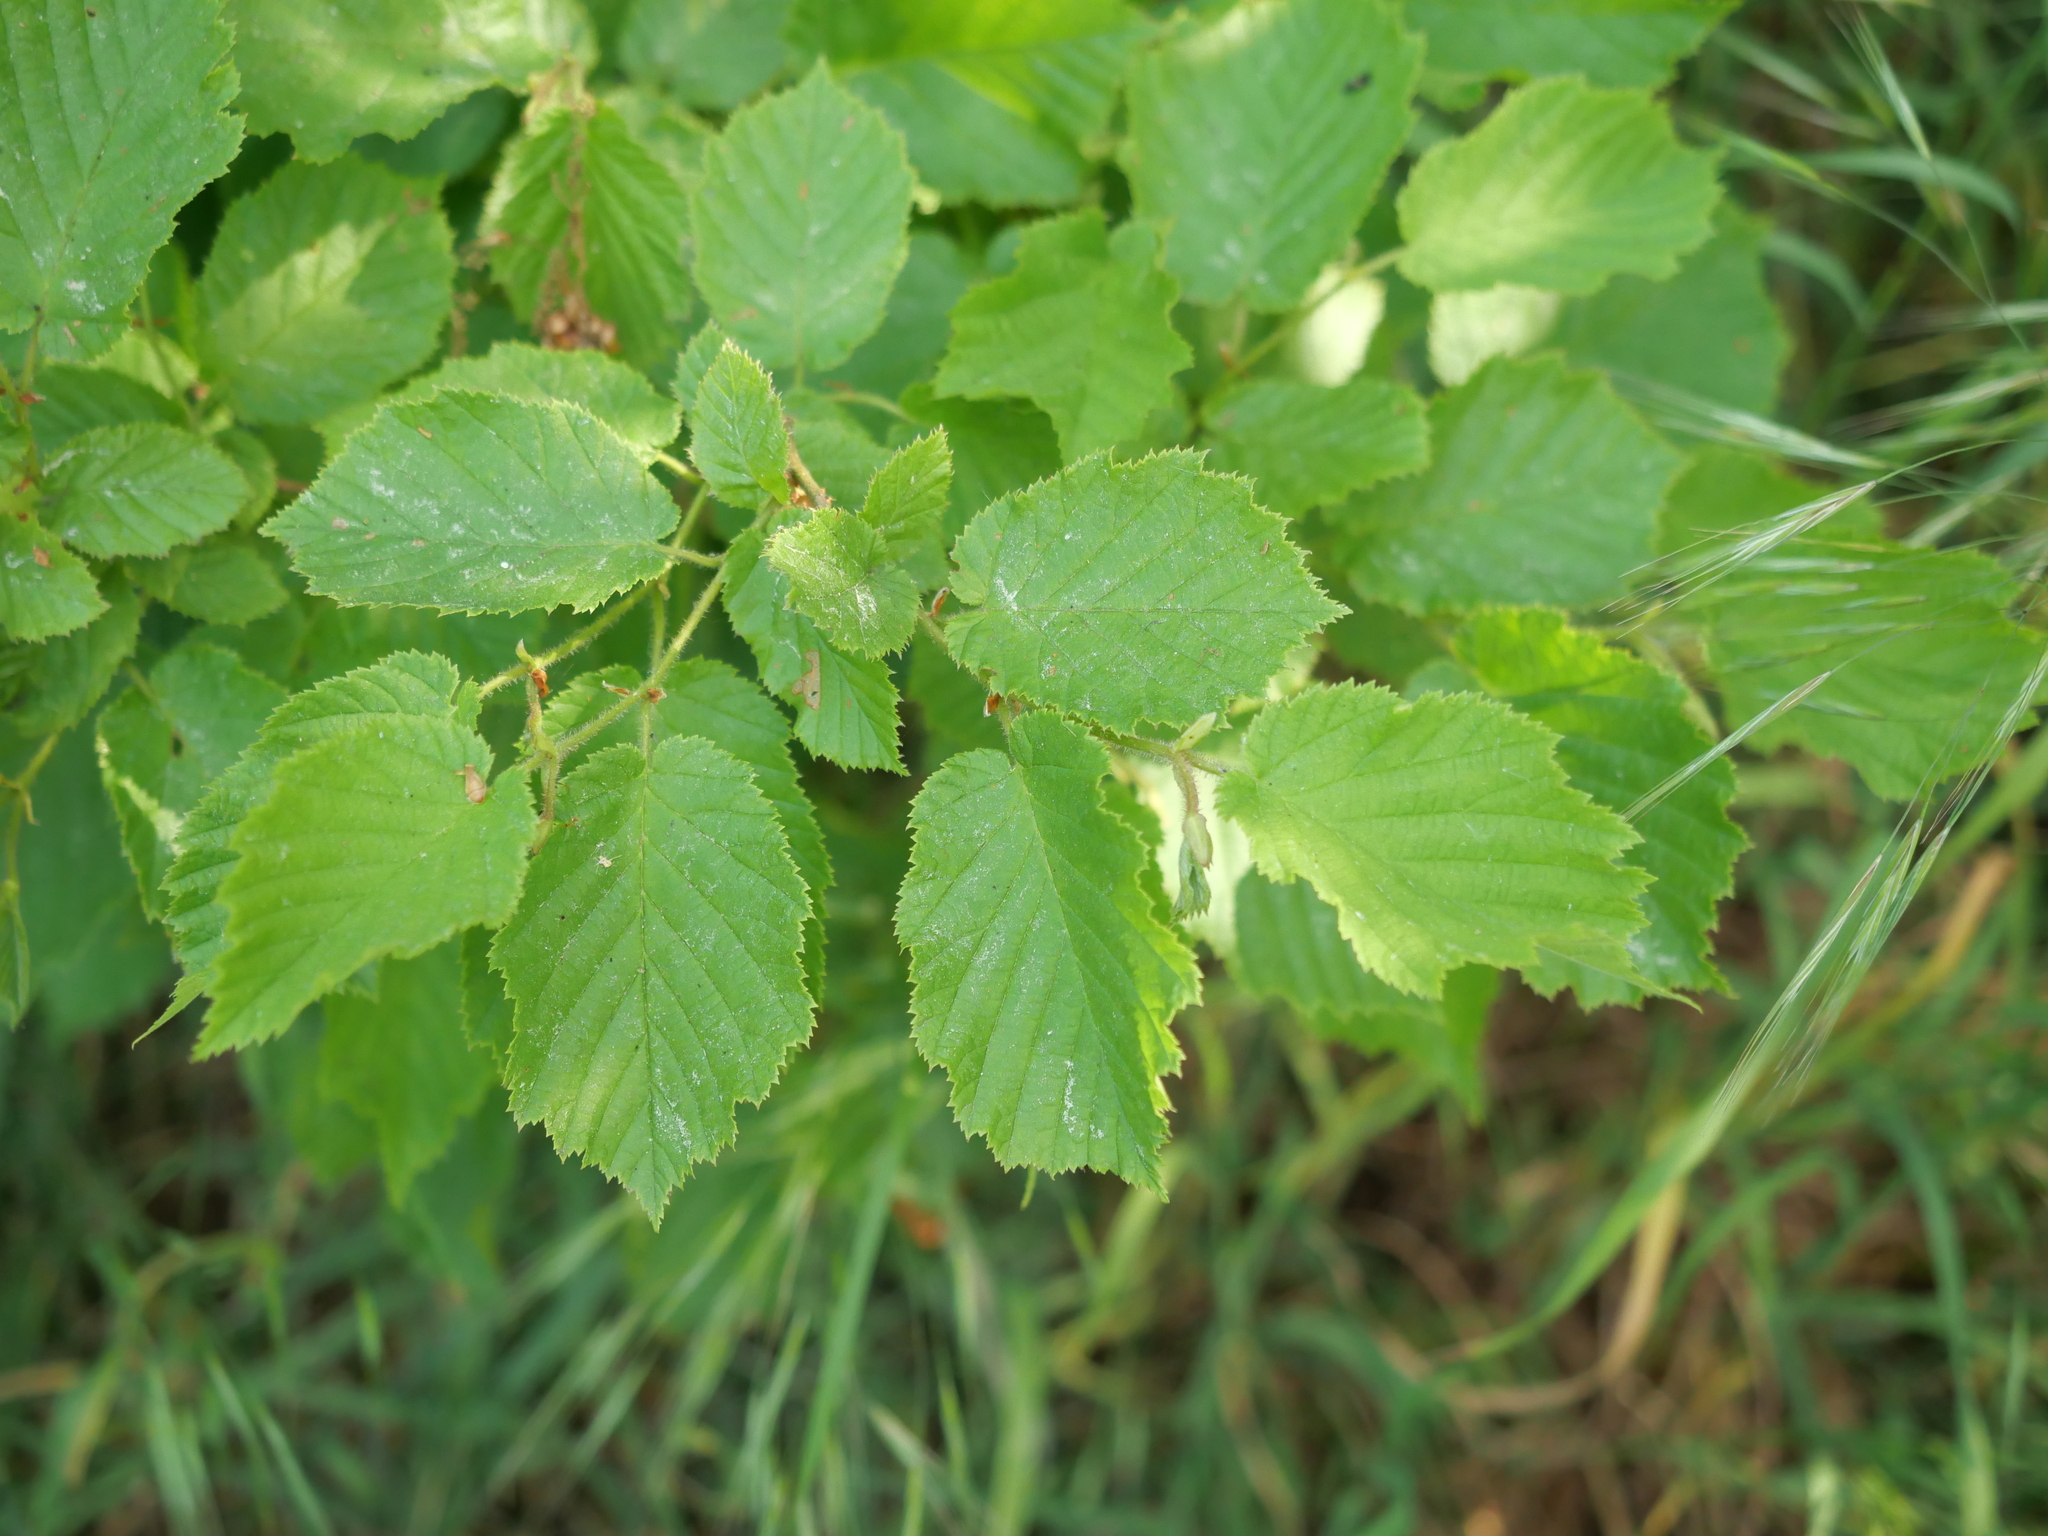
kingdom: Plantae
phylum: Tracheophyta
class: Magnoliopsida
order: Fagales
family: Betulaceae
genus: Corylus
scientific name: Corylus avellana
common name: European hazel
